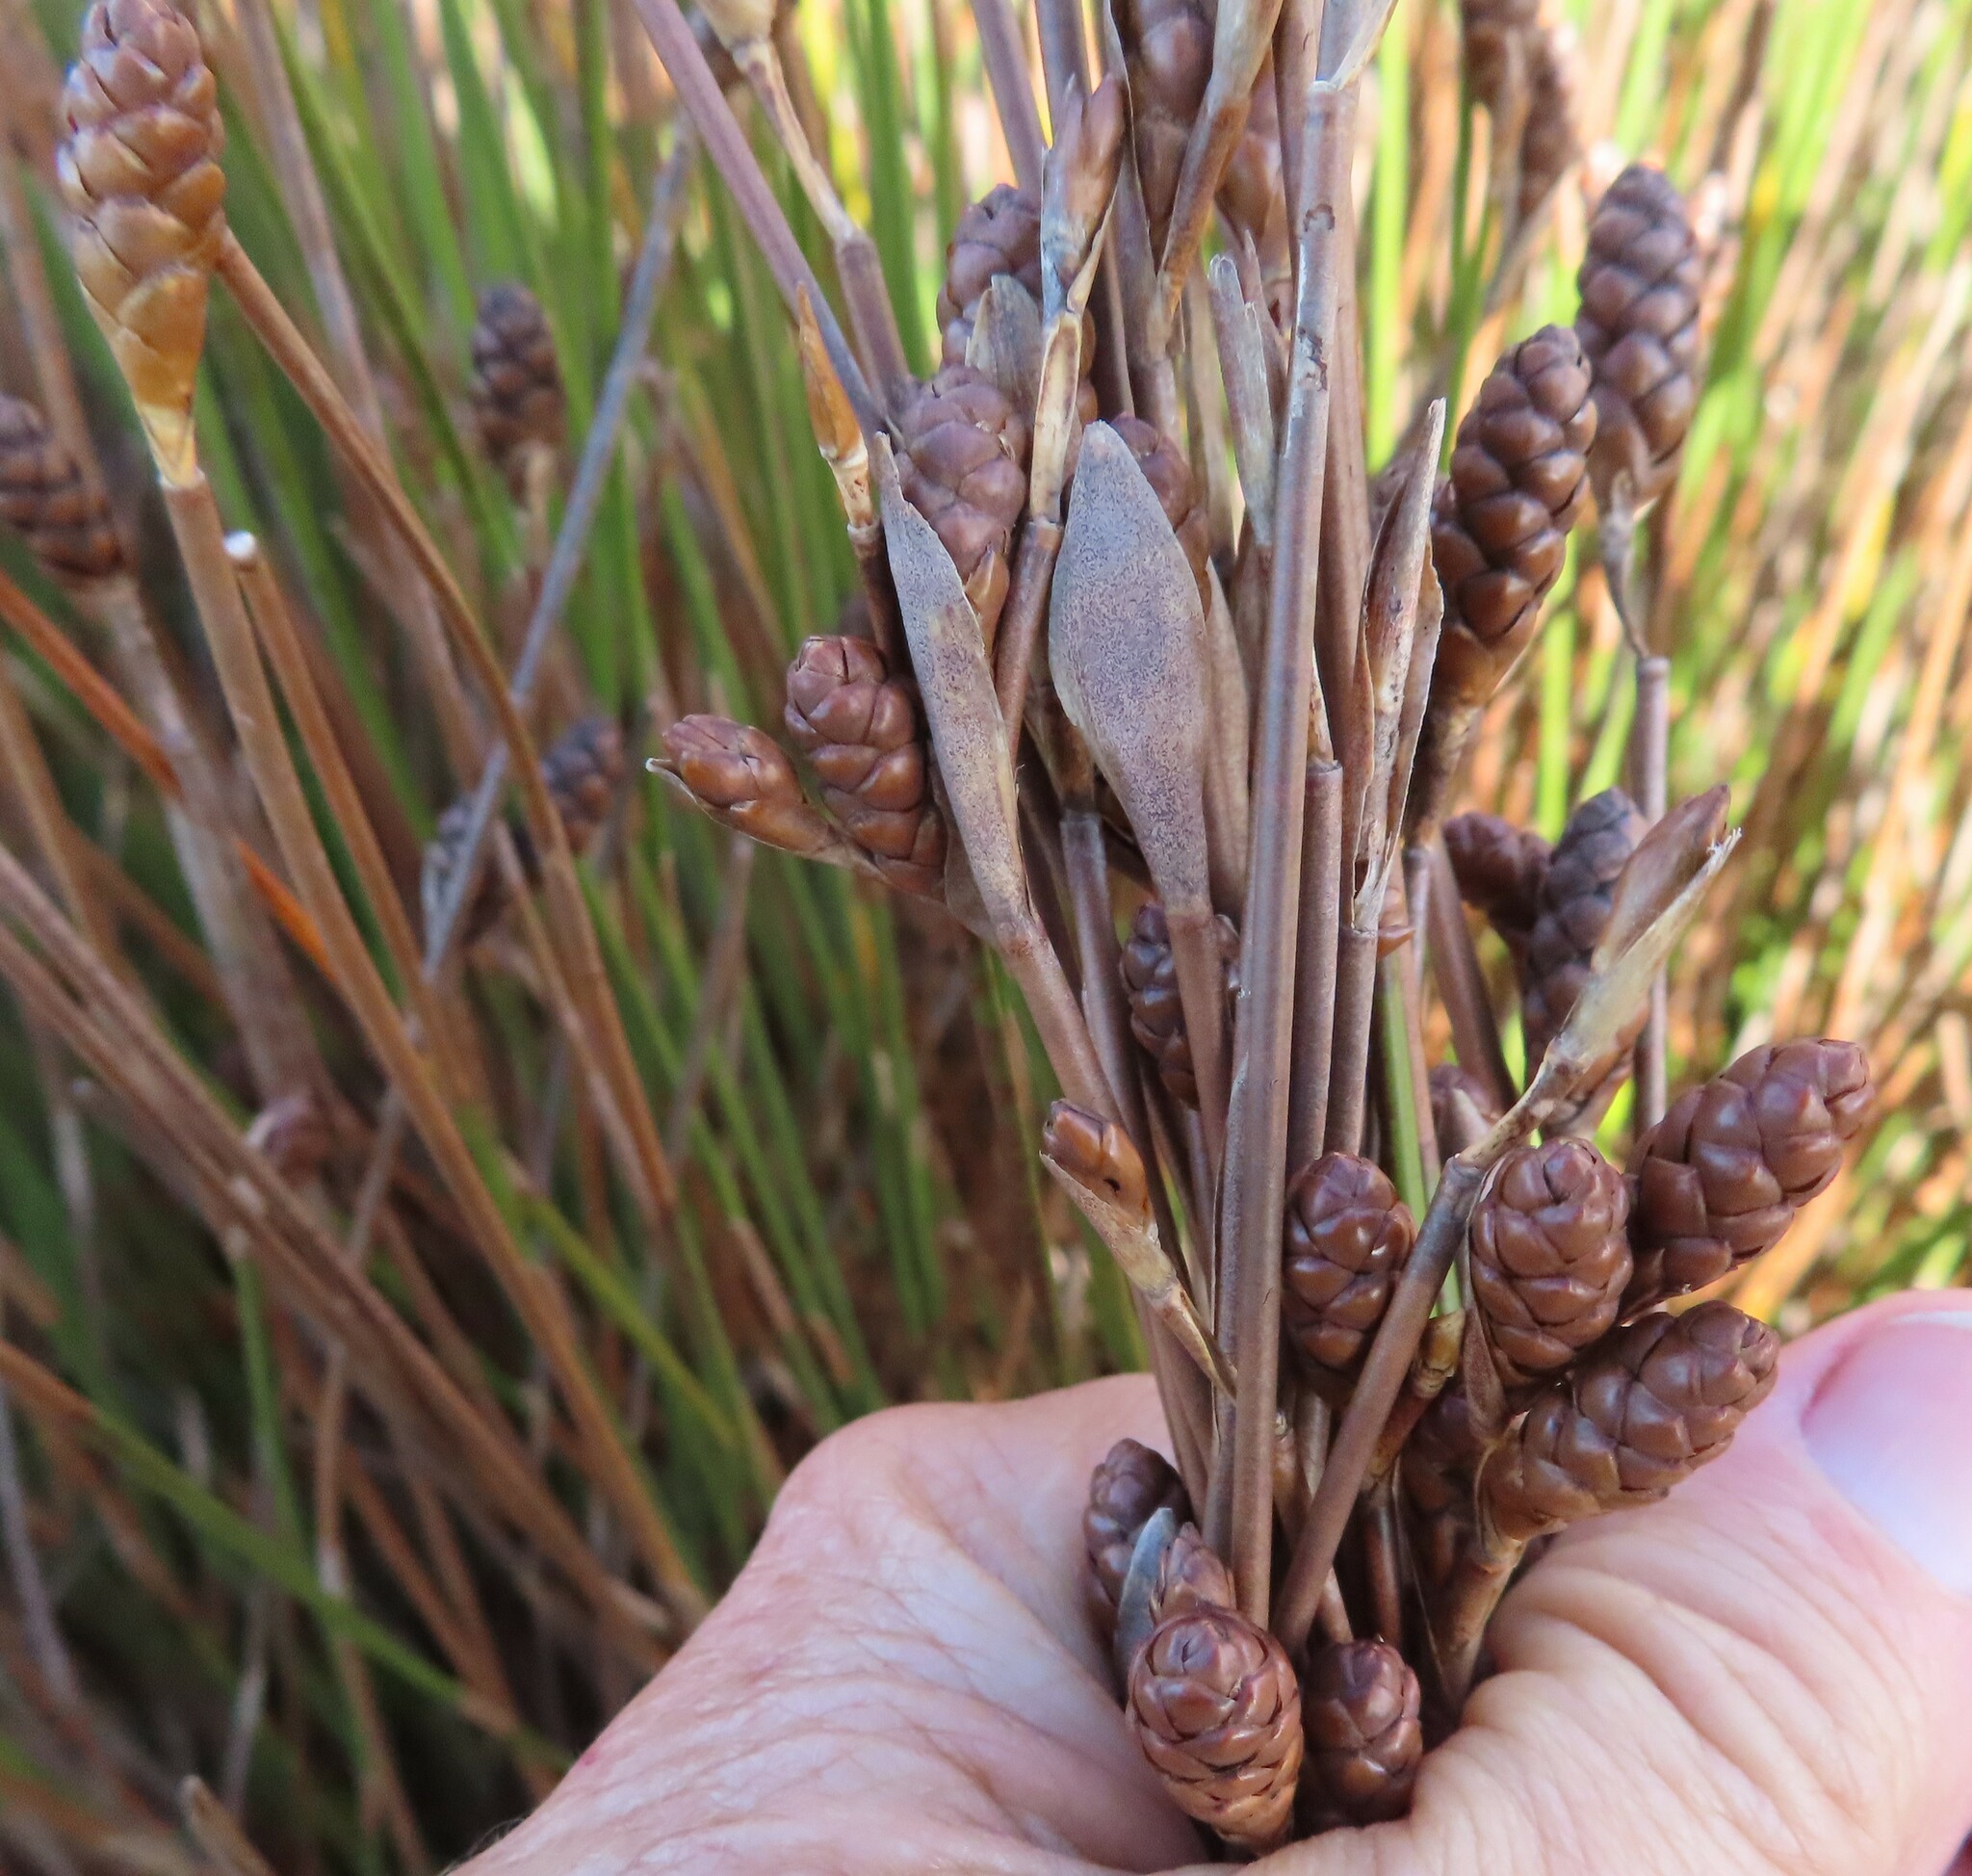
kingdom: Plantae
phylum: Tracheophyta
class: Liliopsida
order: Poales
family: Restionaceae
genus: Nevillea
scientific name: Nevillea obtusissimus
